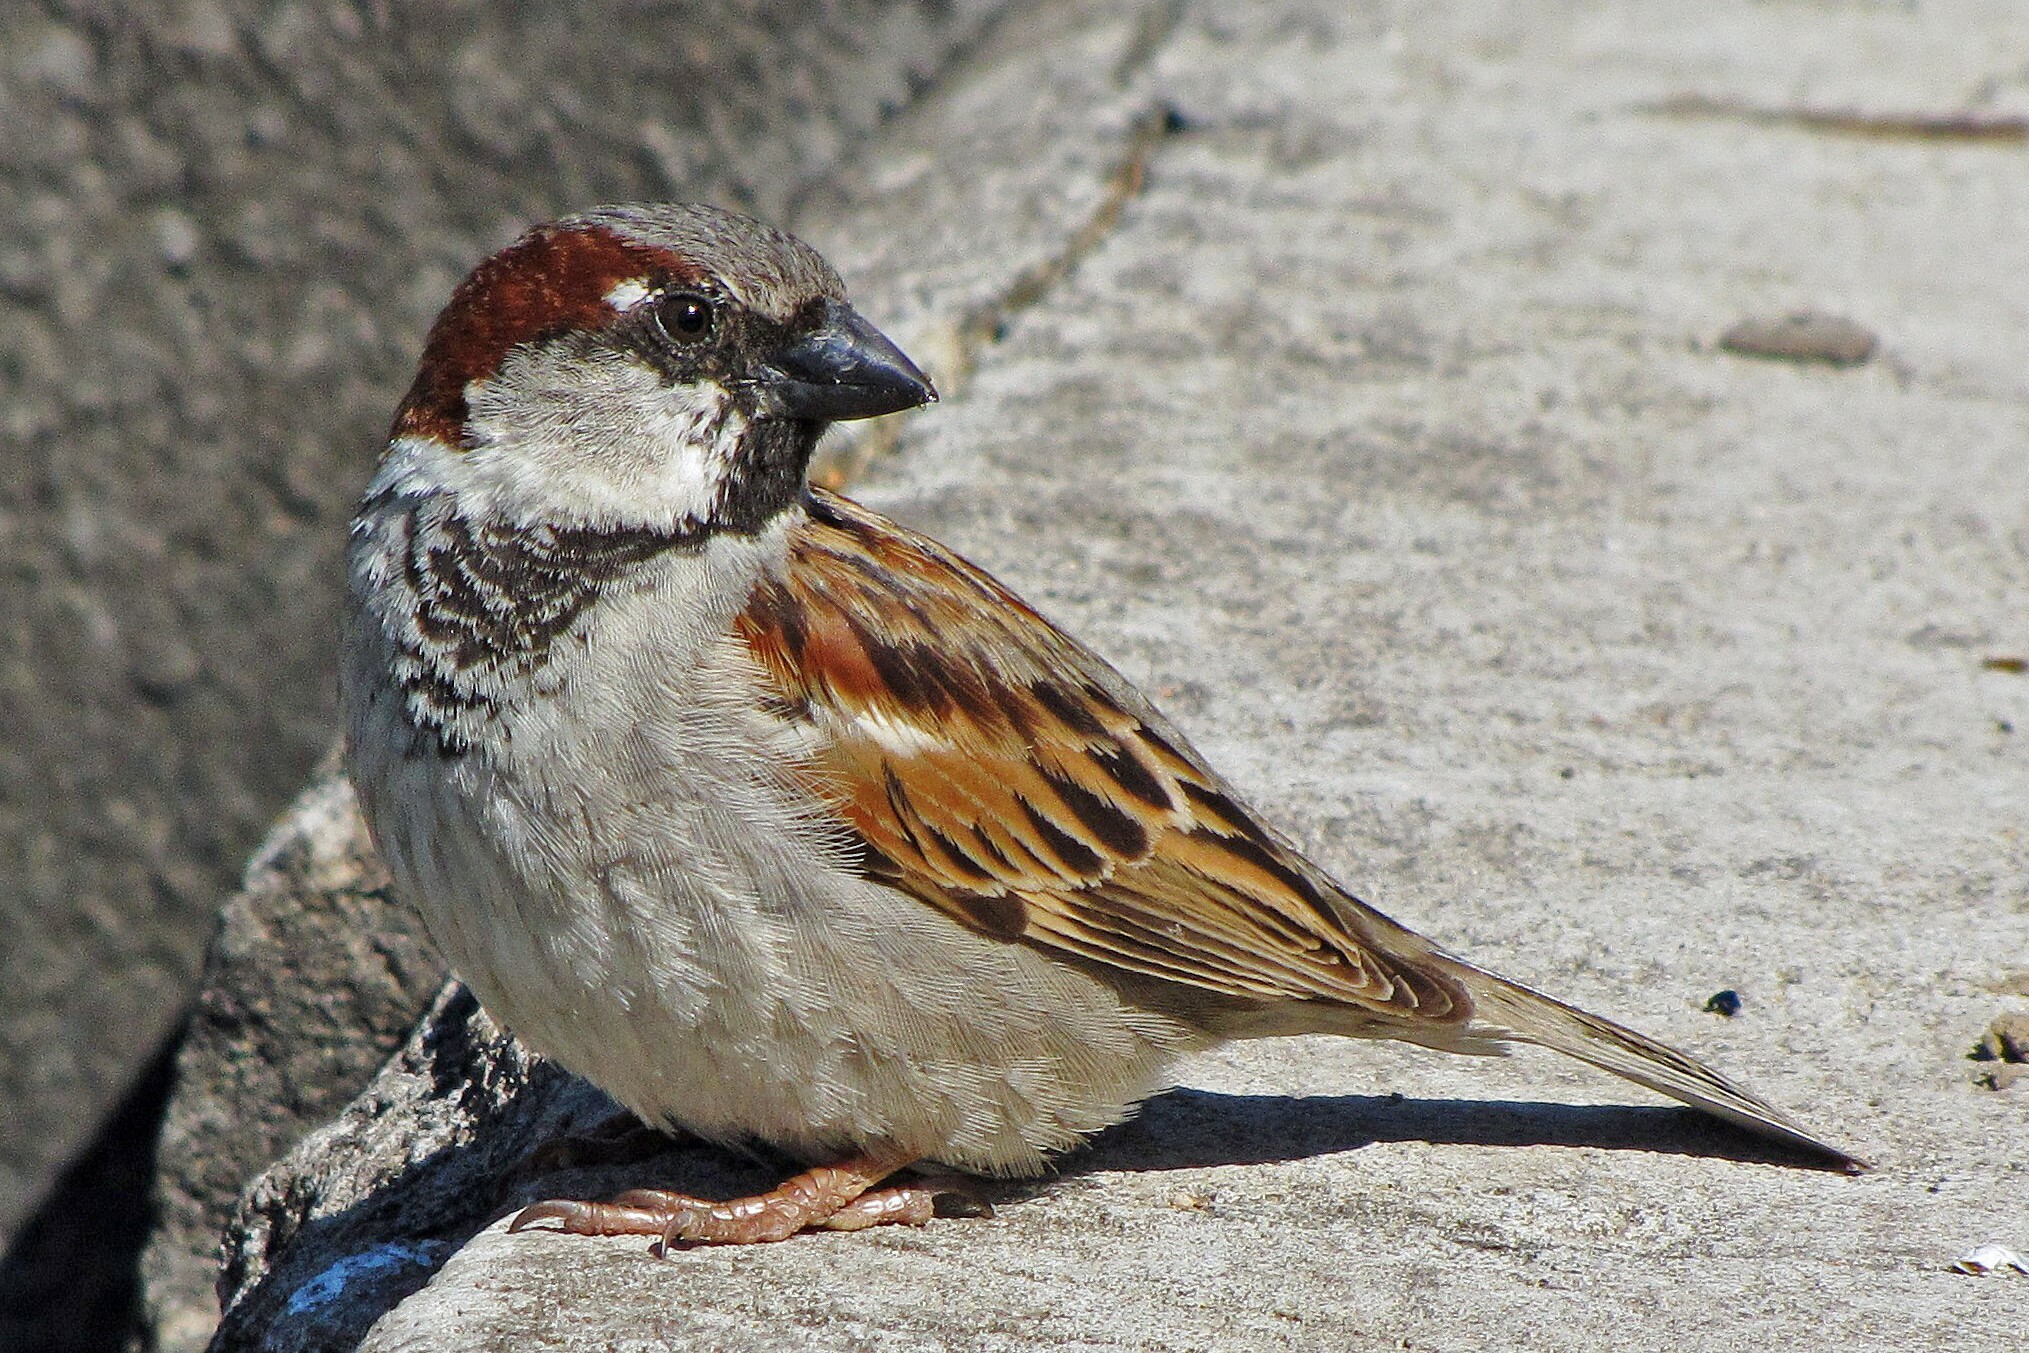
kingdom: Animalia
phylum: Chordata
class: Aves
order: Passeriformes
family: Passeridae
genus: Passer
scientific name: Passer domesticus
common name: House sparrow
